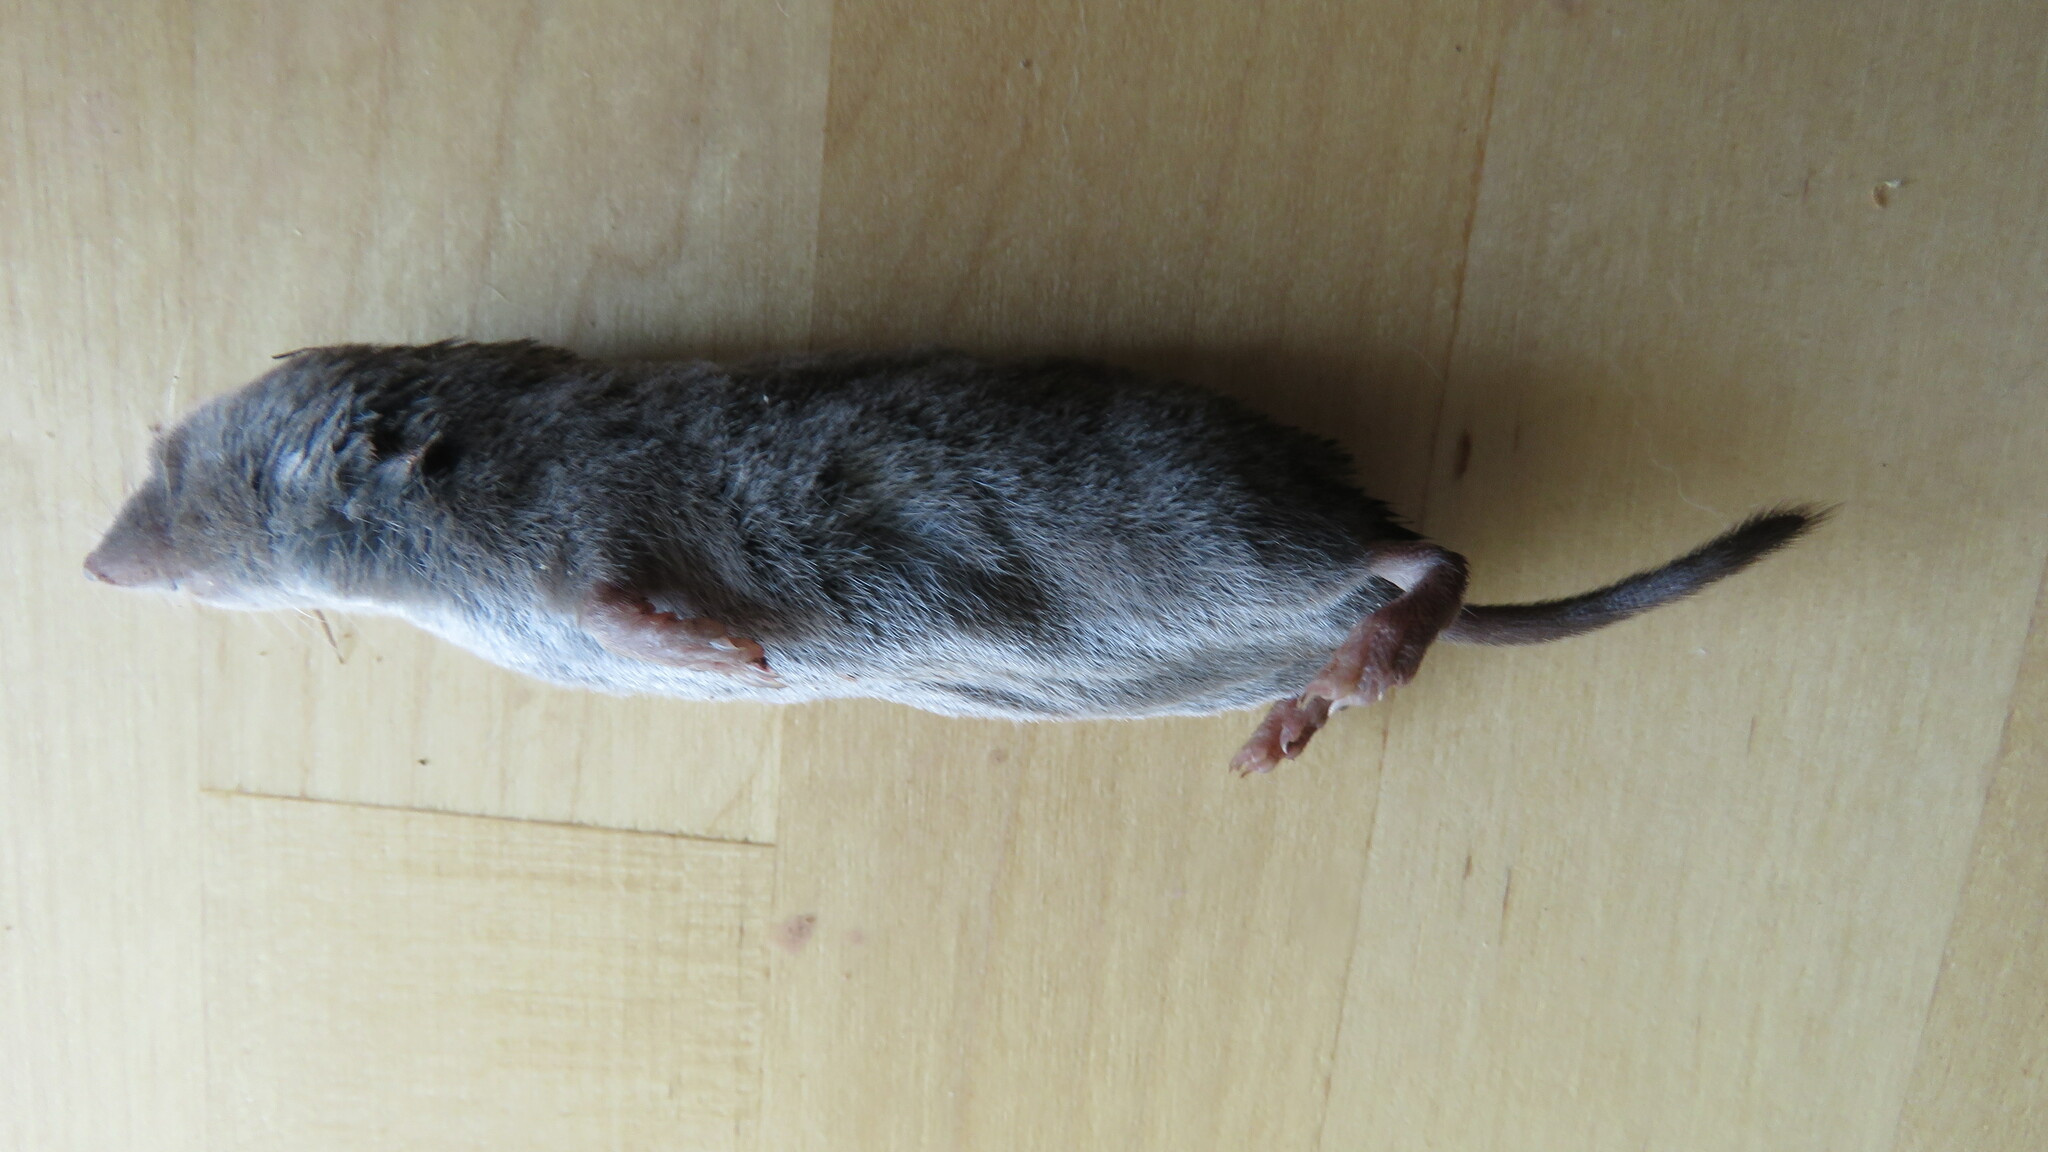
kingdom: Animalia
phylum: Chordata
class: Mammalia
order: Soricomorpha
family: Soricidae
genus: Blarina
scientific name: Blarina brevicauda
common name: Northern short-tailed shrew
